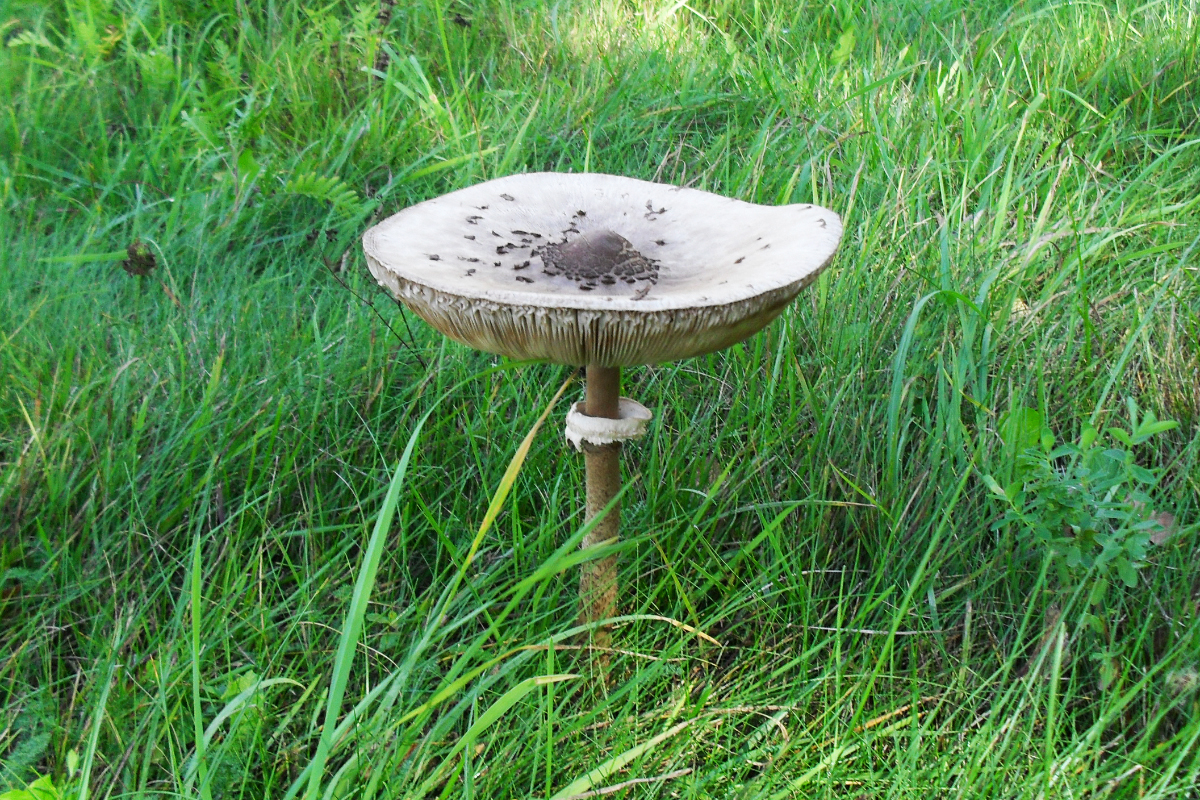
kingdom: Fungi
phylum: Basidiomycota
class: Agaricomycetes
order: Agaricales
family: Agaricaceae
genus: Macrolepiota
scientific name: Macrolepiota procera
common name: Parasol
